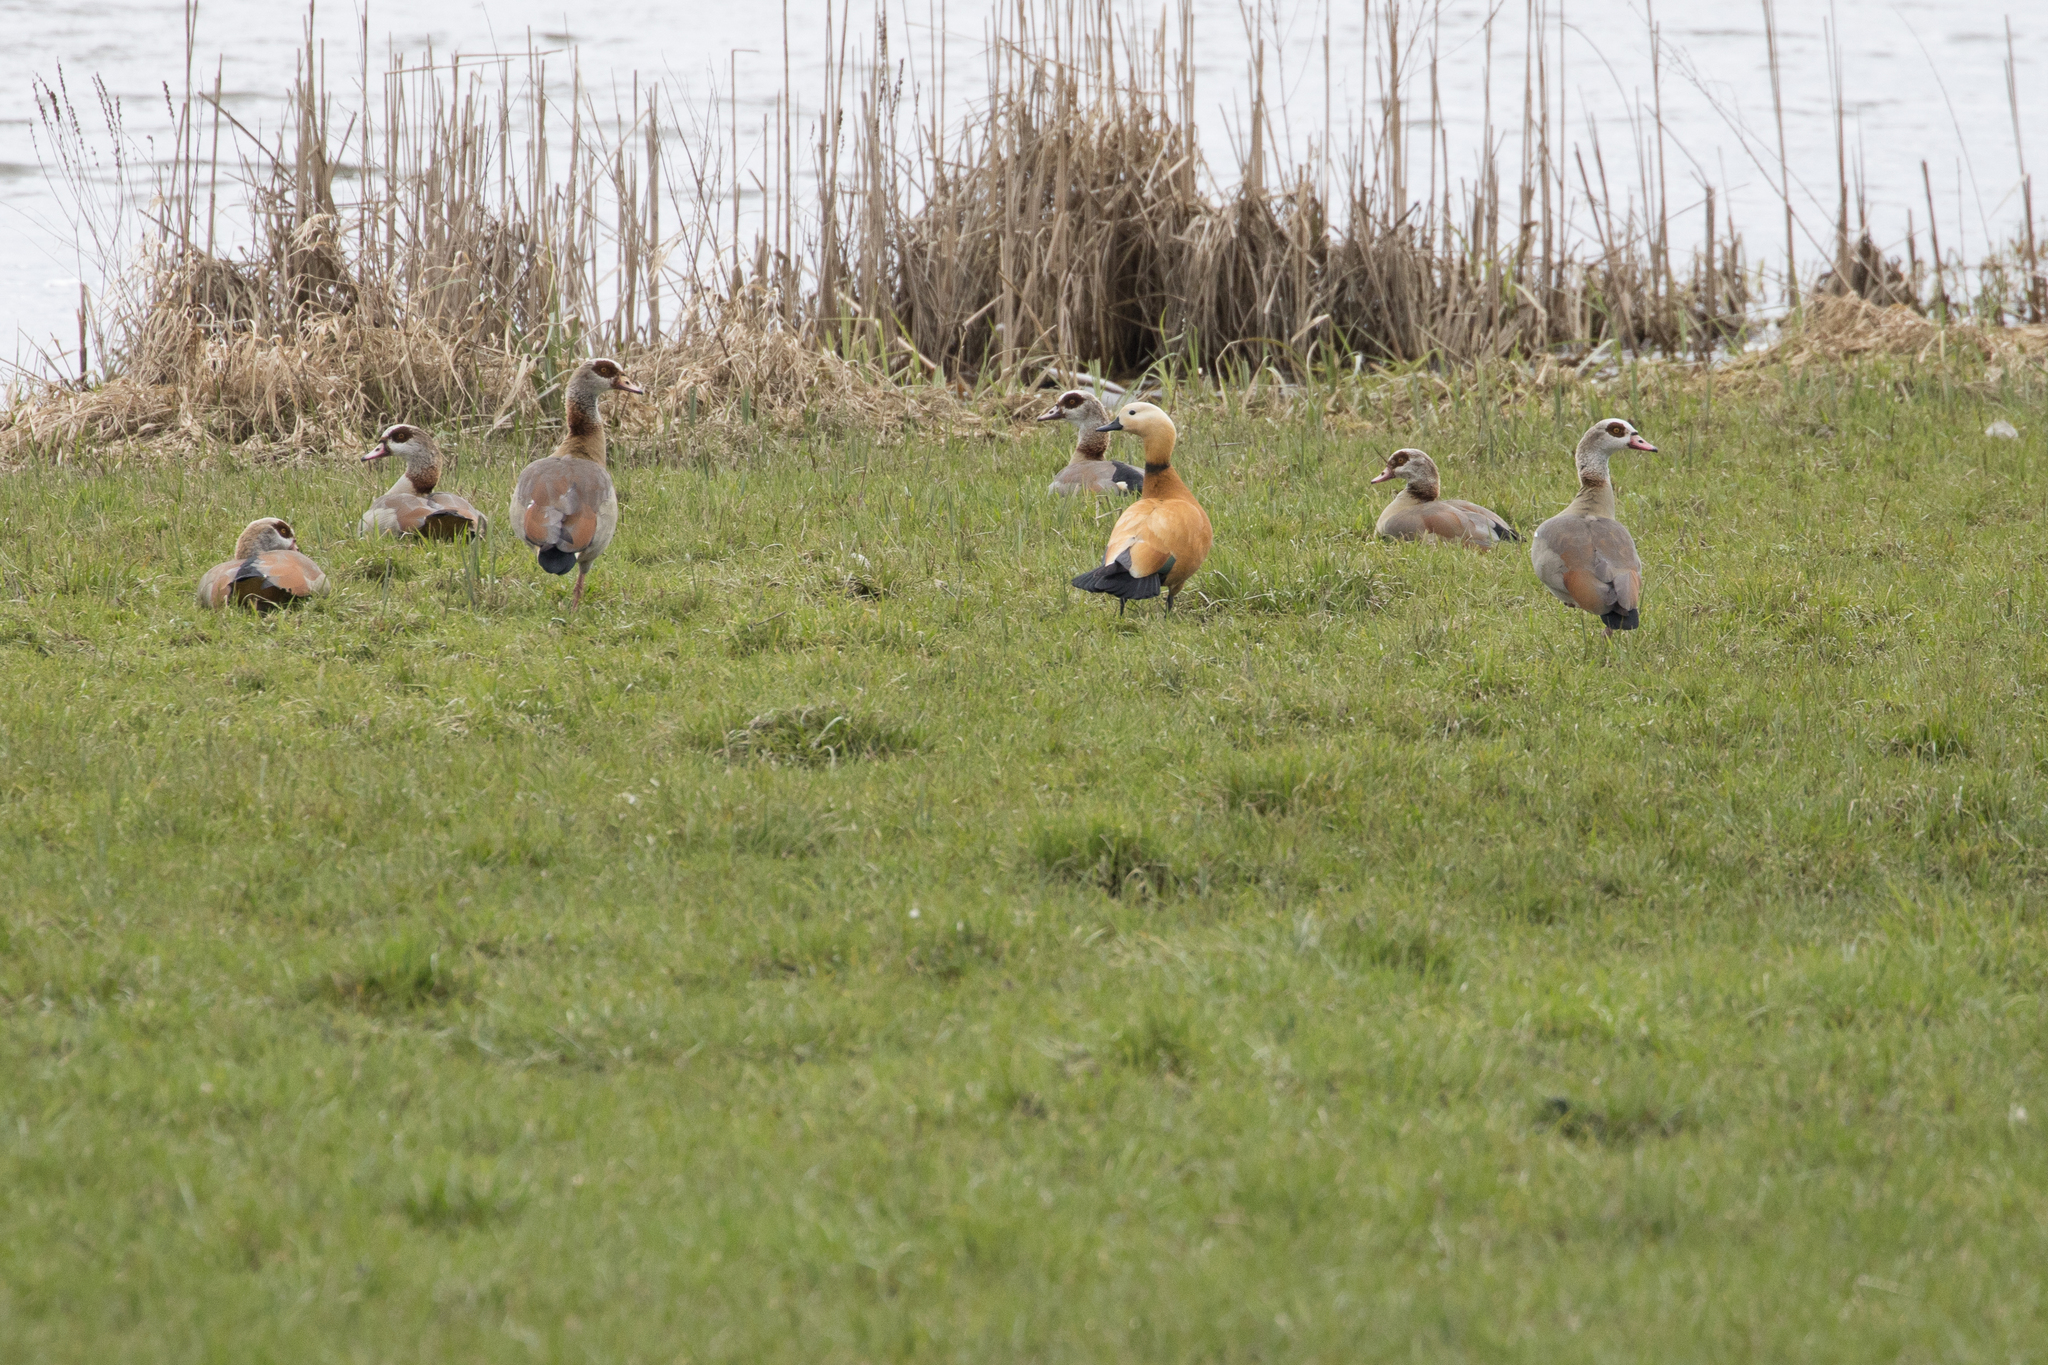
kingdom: Animalia
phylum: Chordata
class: Aves
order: Anseriformes
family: Anatidae
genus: Tadorna
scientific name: Tadorna ferruginea
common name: Ruddy shelduck
